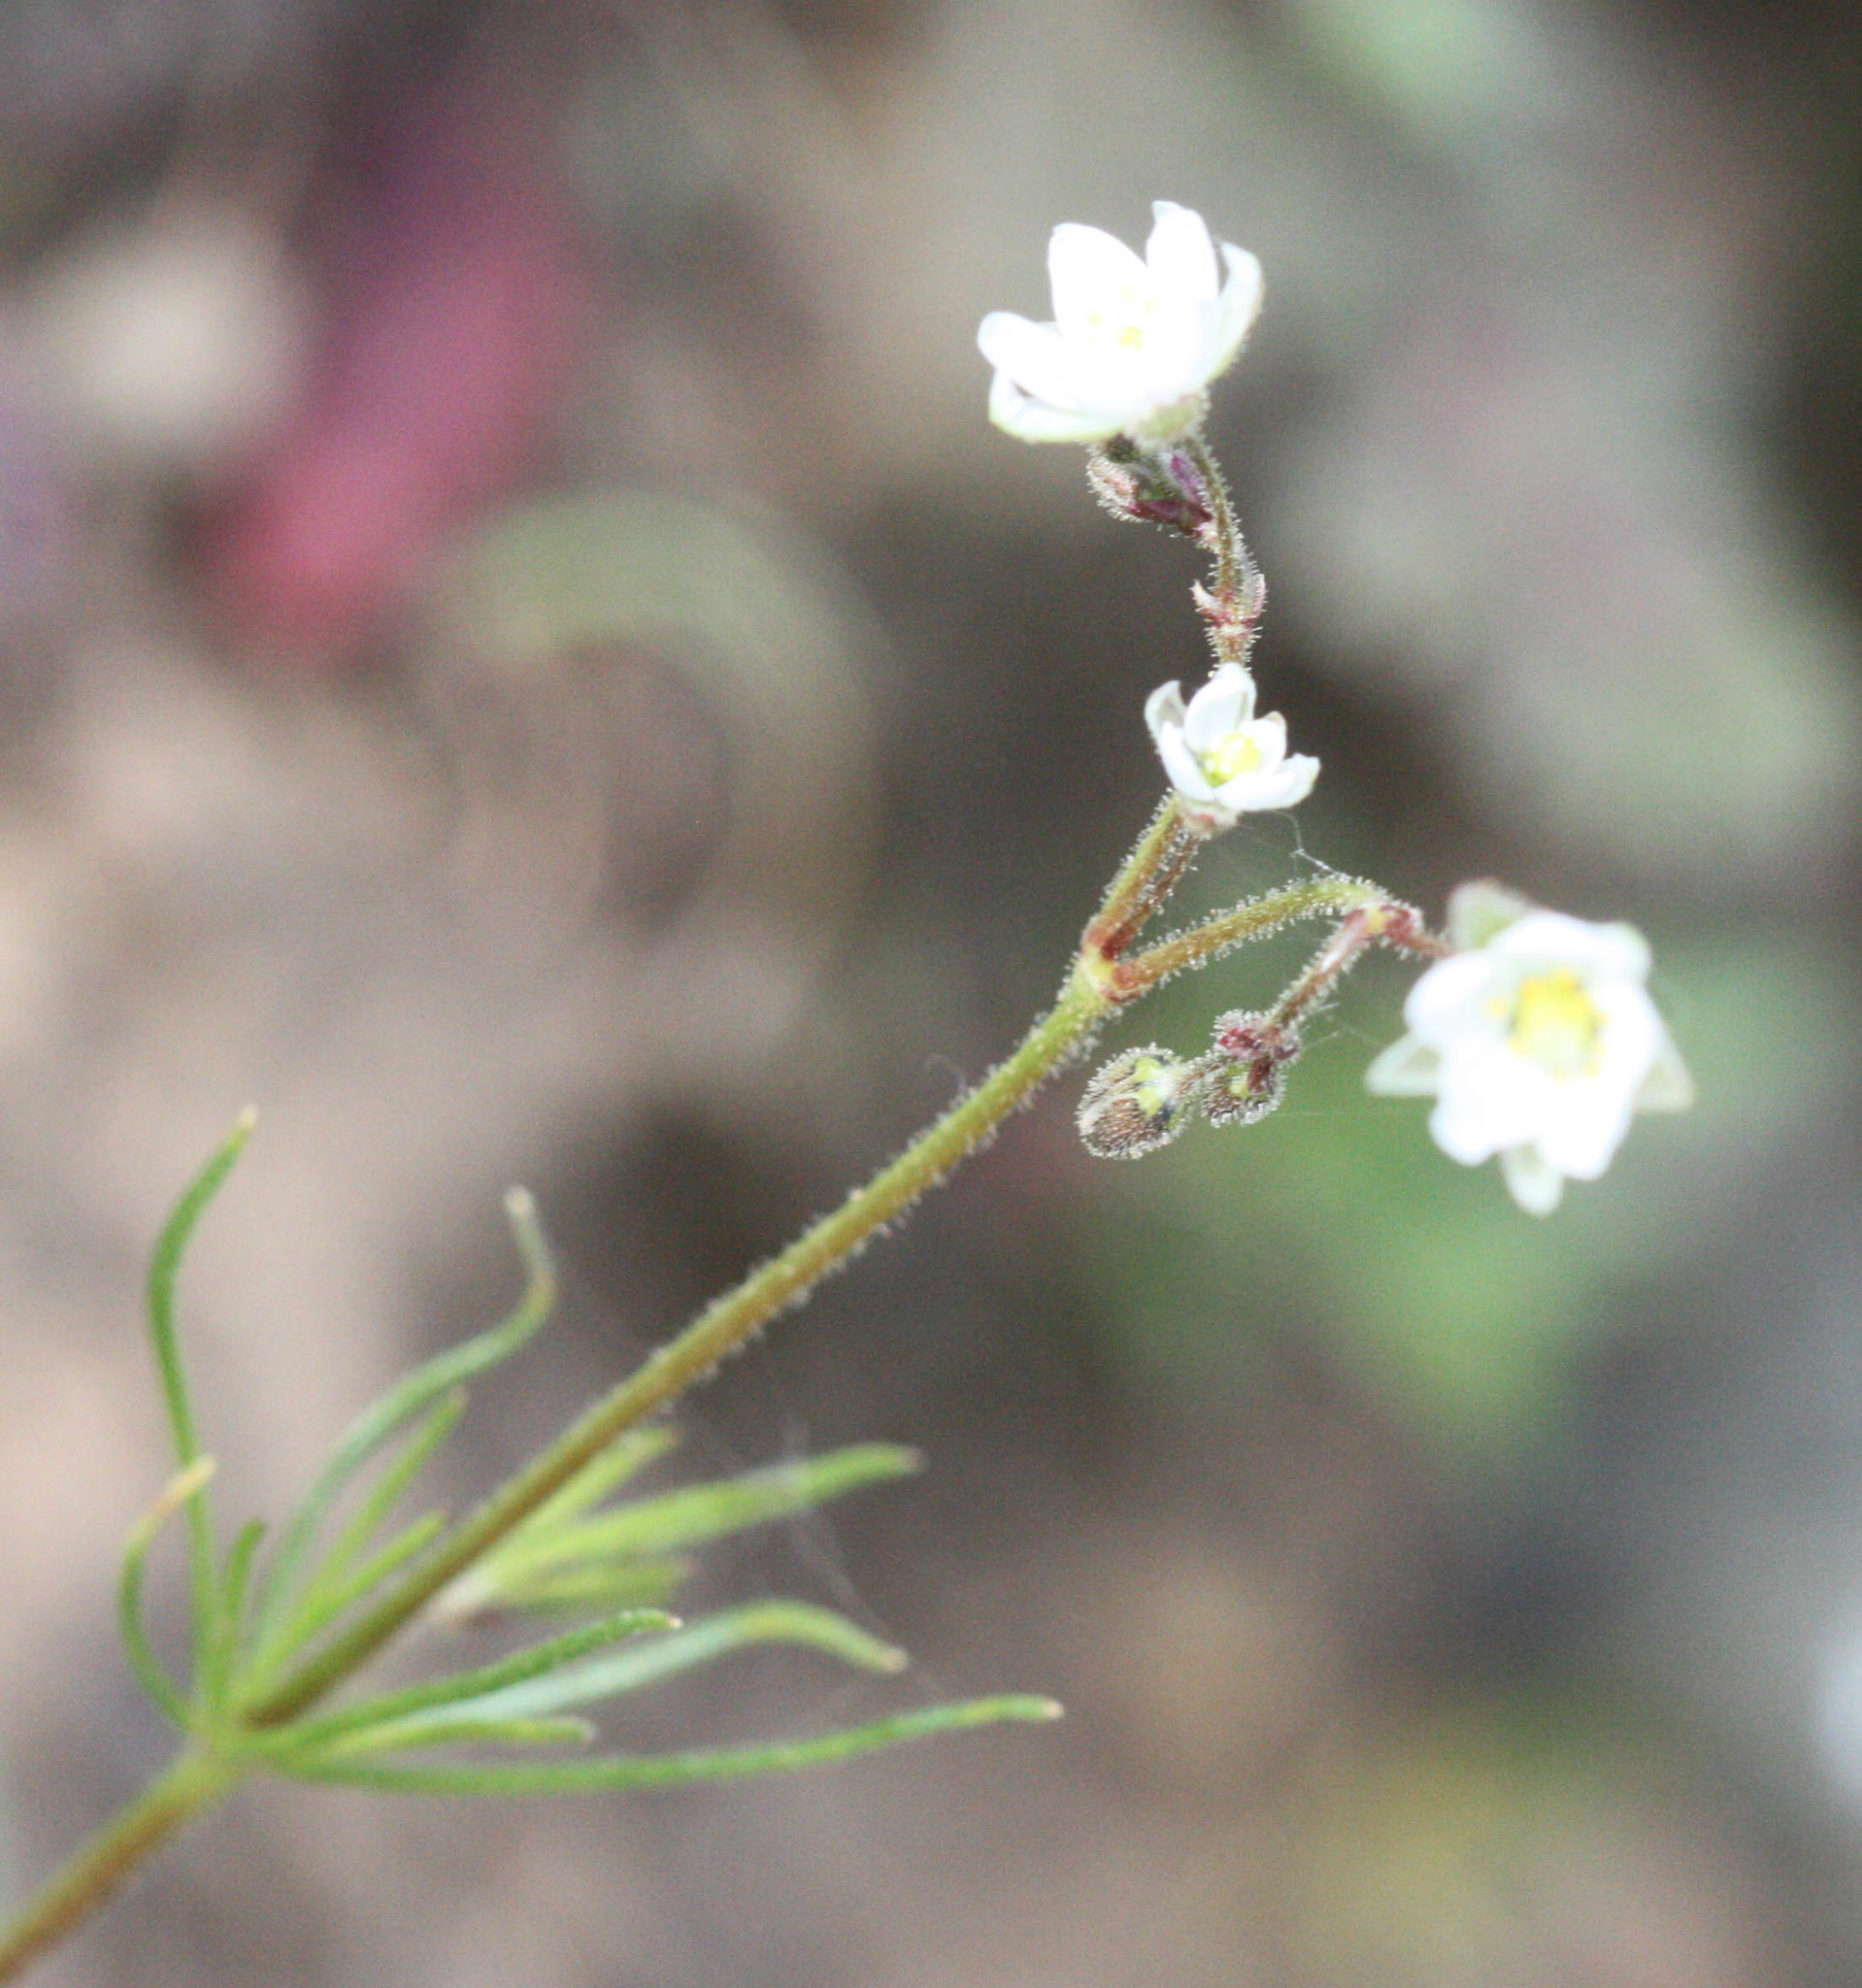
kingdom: Plantae
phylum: Tracheophyta
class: Magnoliopsida
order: Caryophyllales
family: Caryophyllaceae
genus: Spergula
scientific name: Spergula arvensis
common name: Corn spurrey
